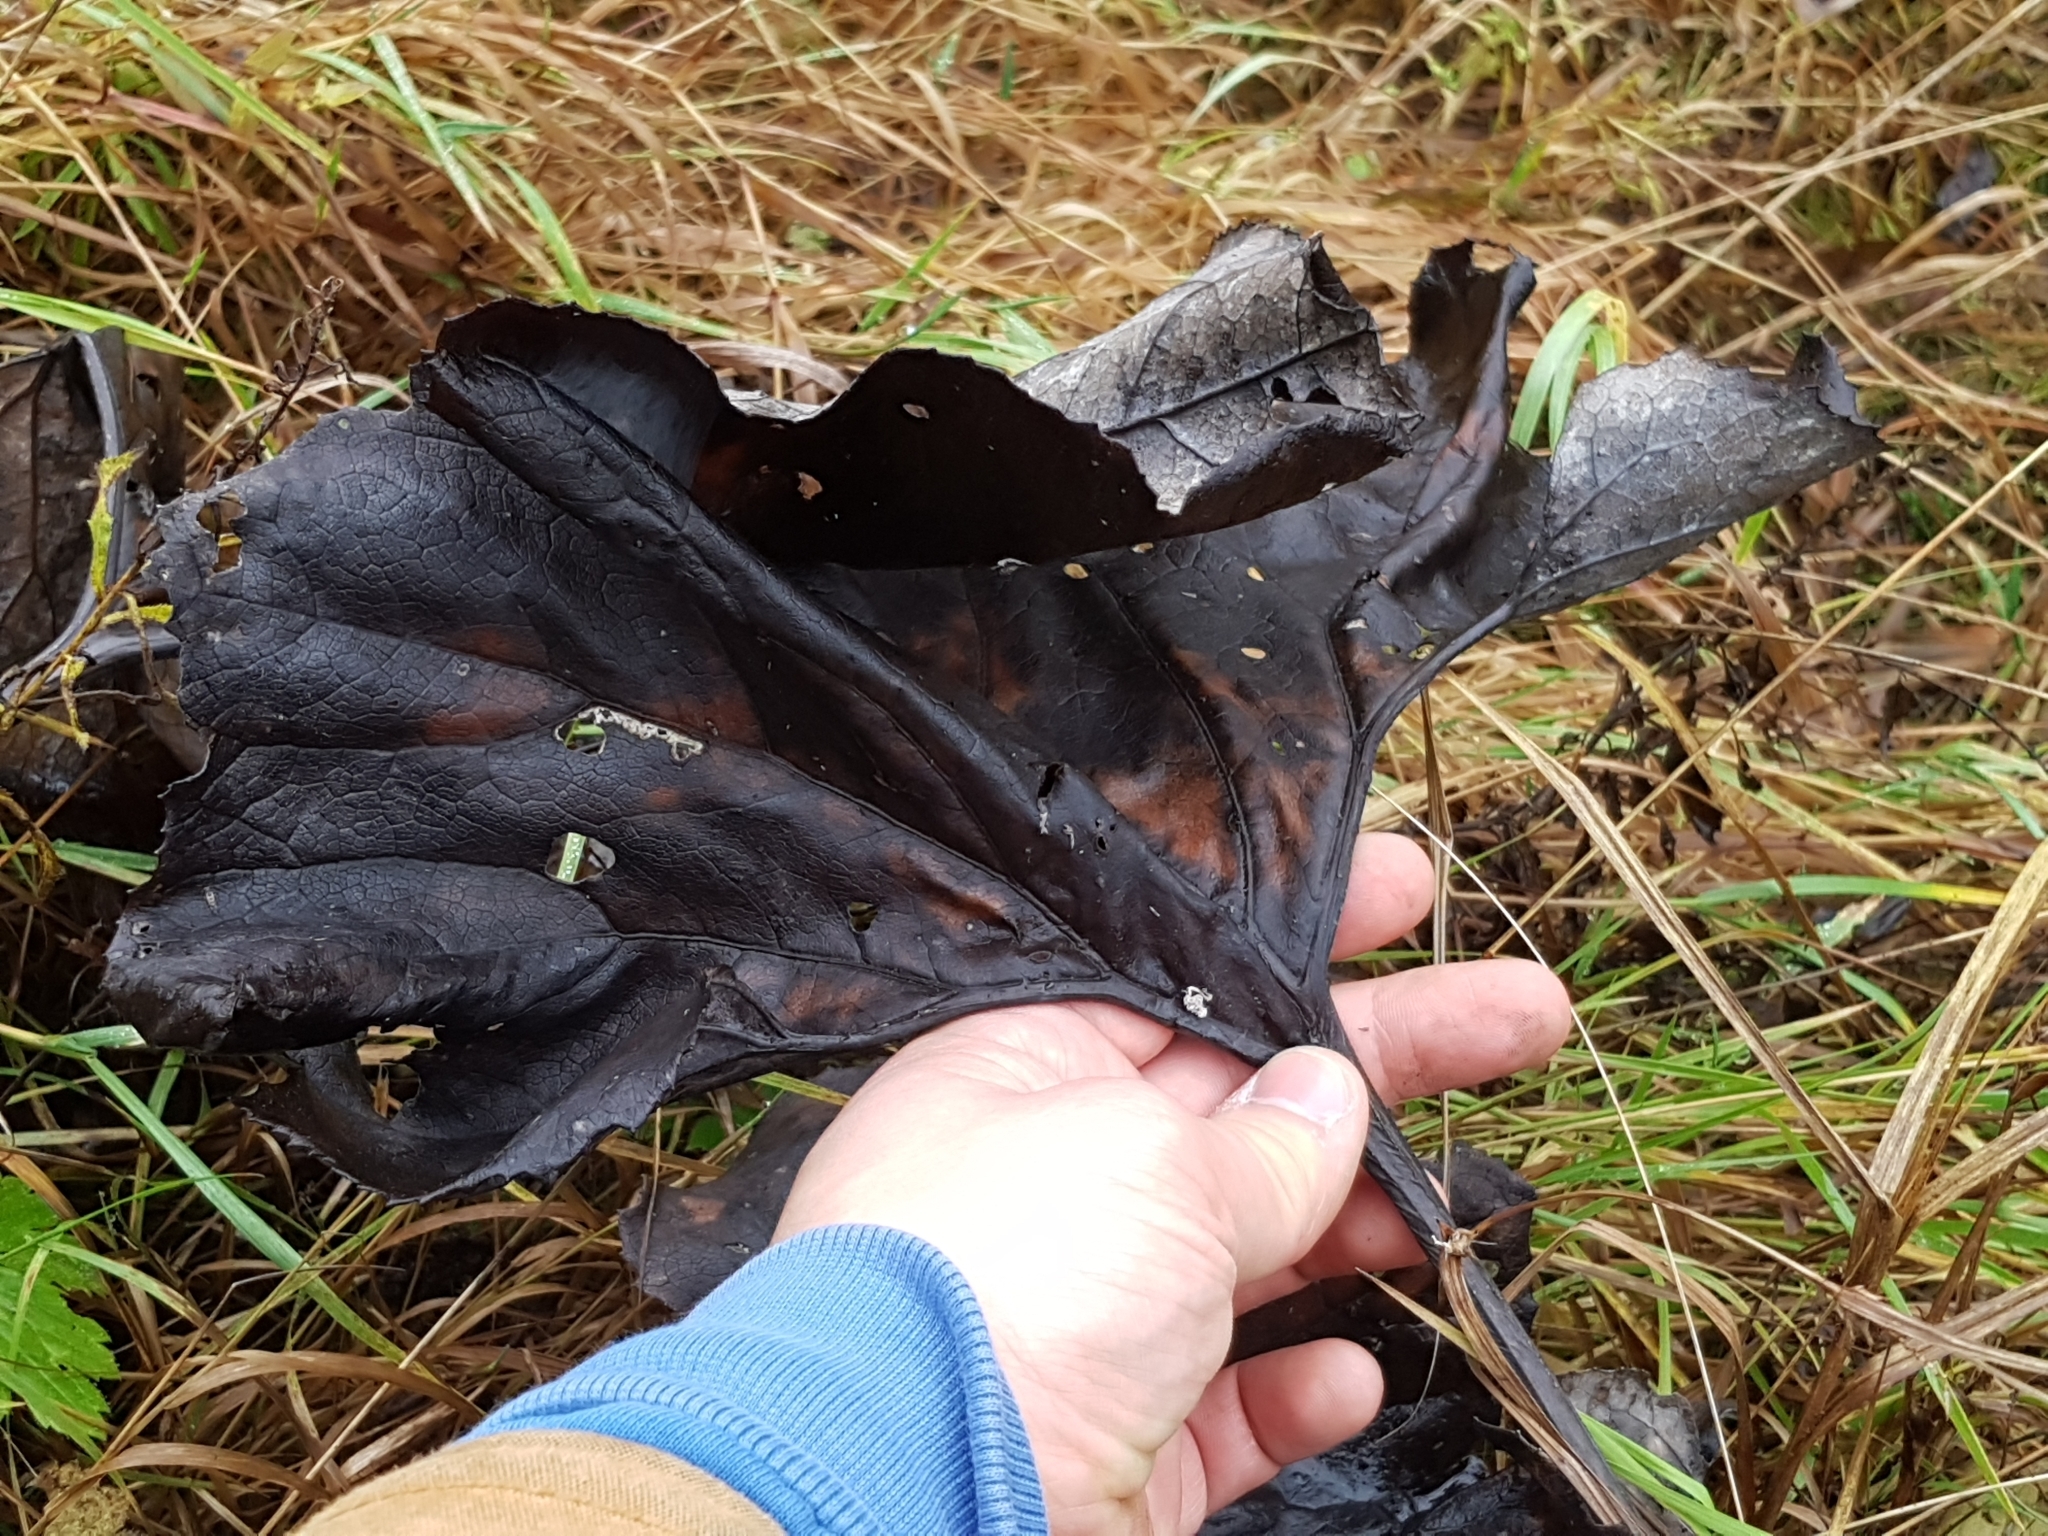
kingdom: Plantae
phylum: Tracheophyta
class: Magnoliopsida
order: Asterales
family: Asteraceae
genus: Petasites
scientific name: Petasites hybridus
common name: Butterbur
